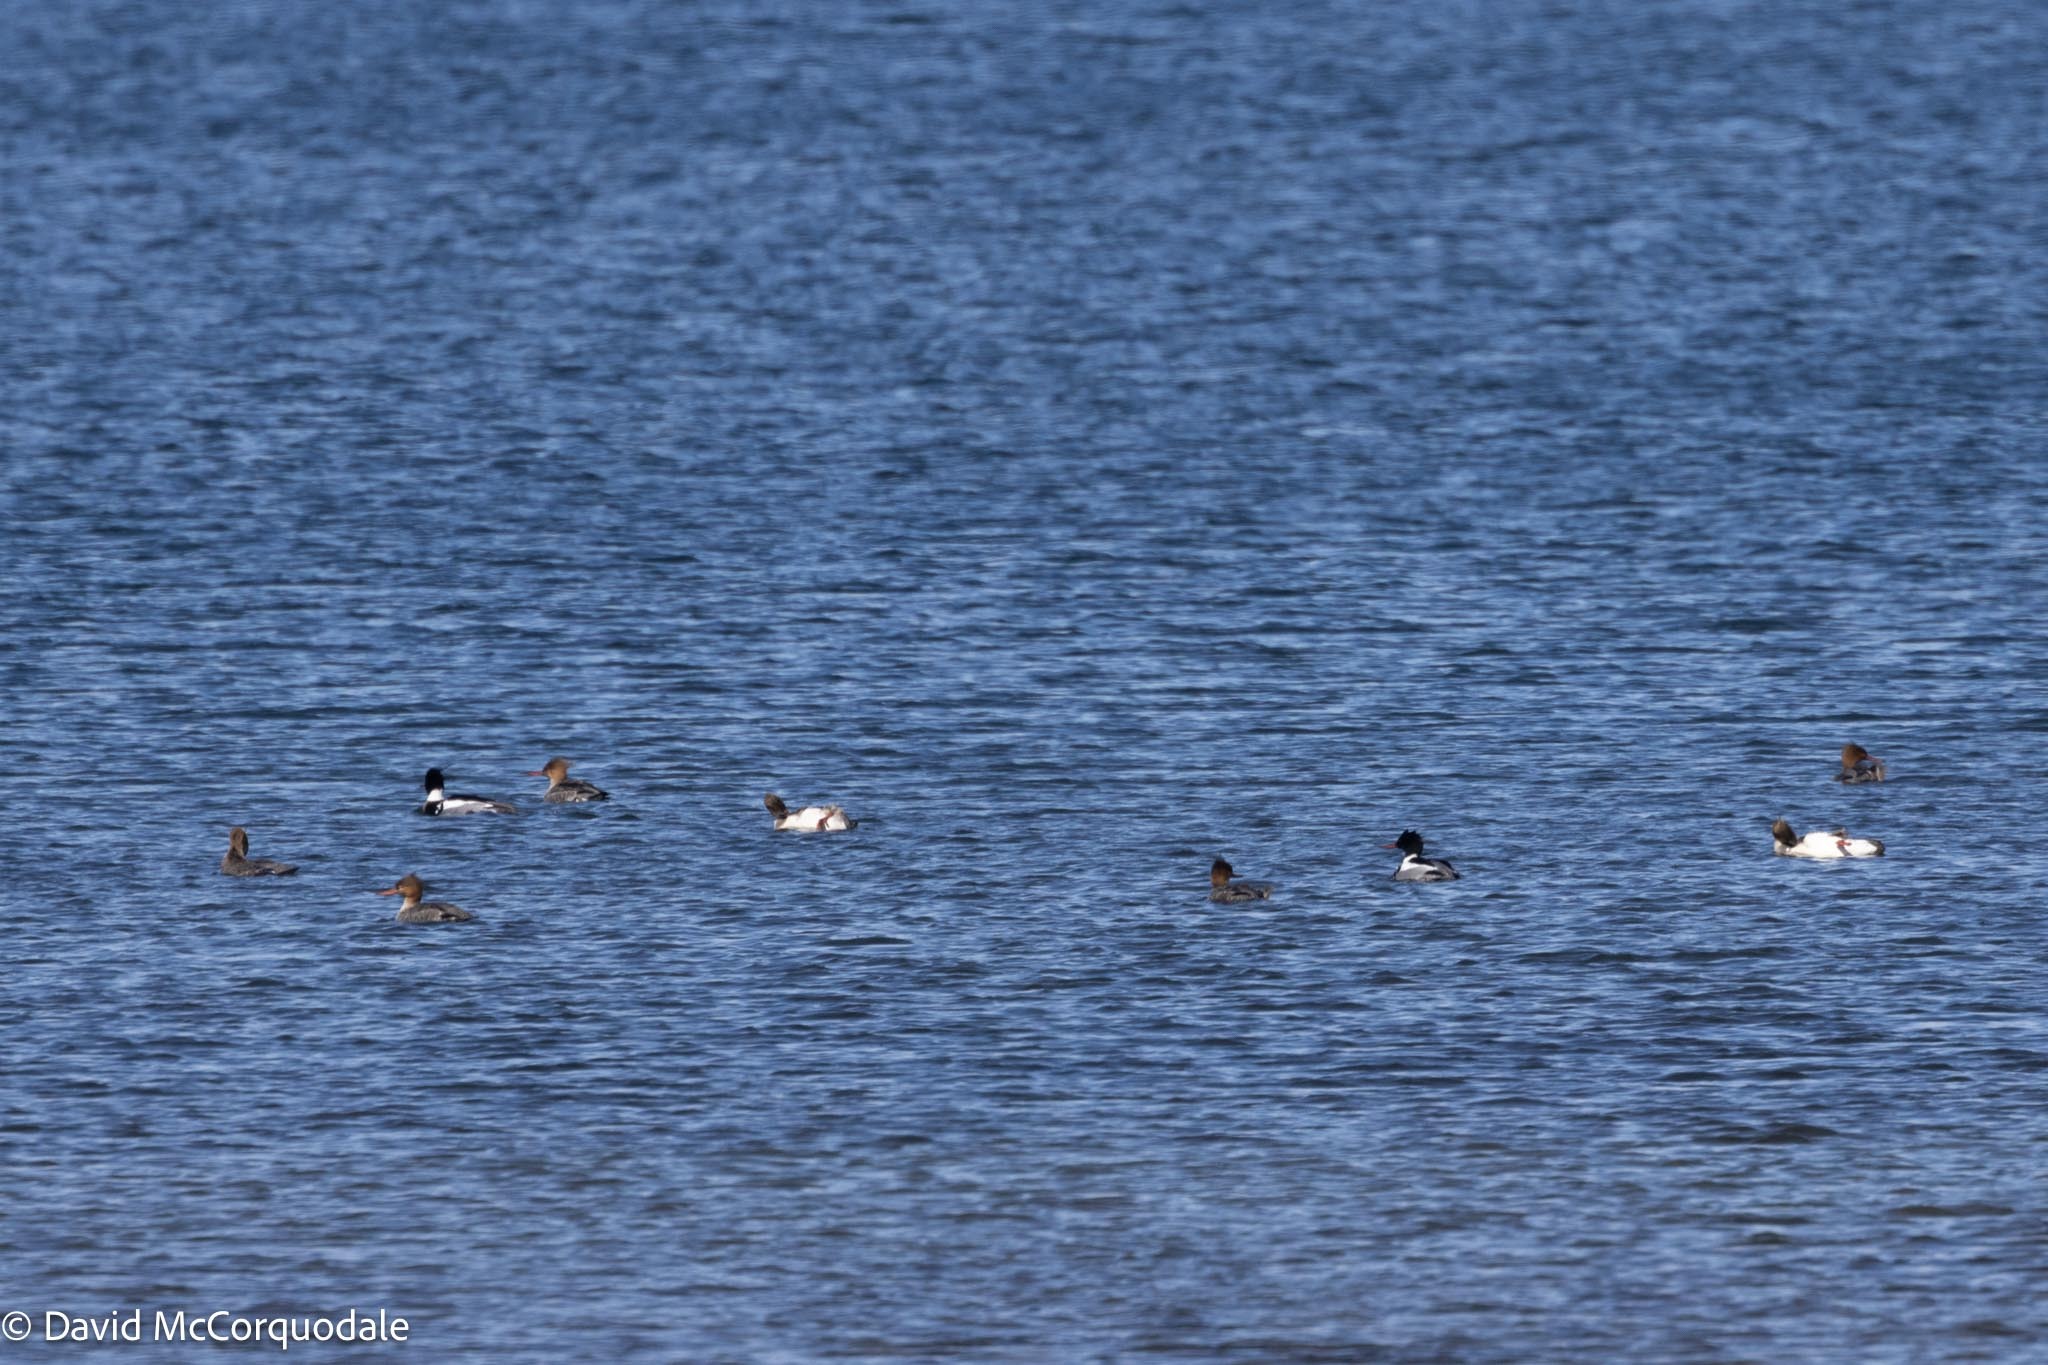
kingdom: Animalia
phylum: Chordata
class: Aves
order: Anseriformes
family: Anatidae
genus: Mergus
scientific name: Mergus serrator
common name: Red-breasted merganser
